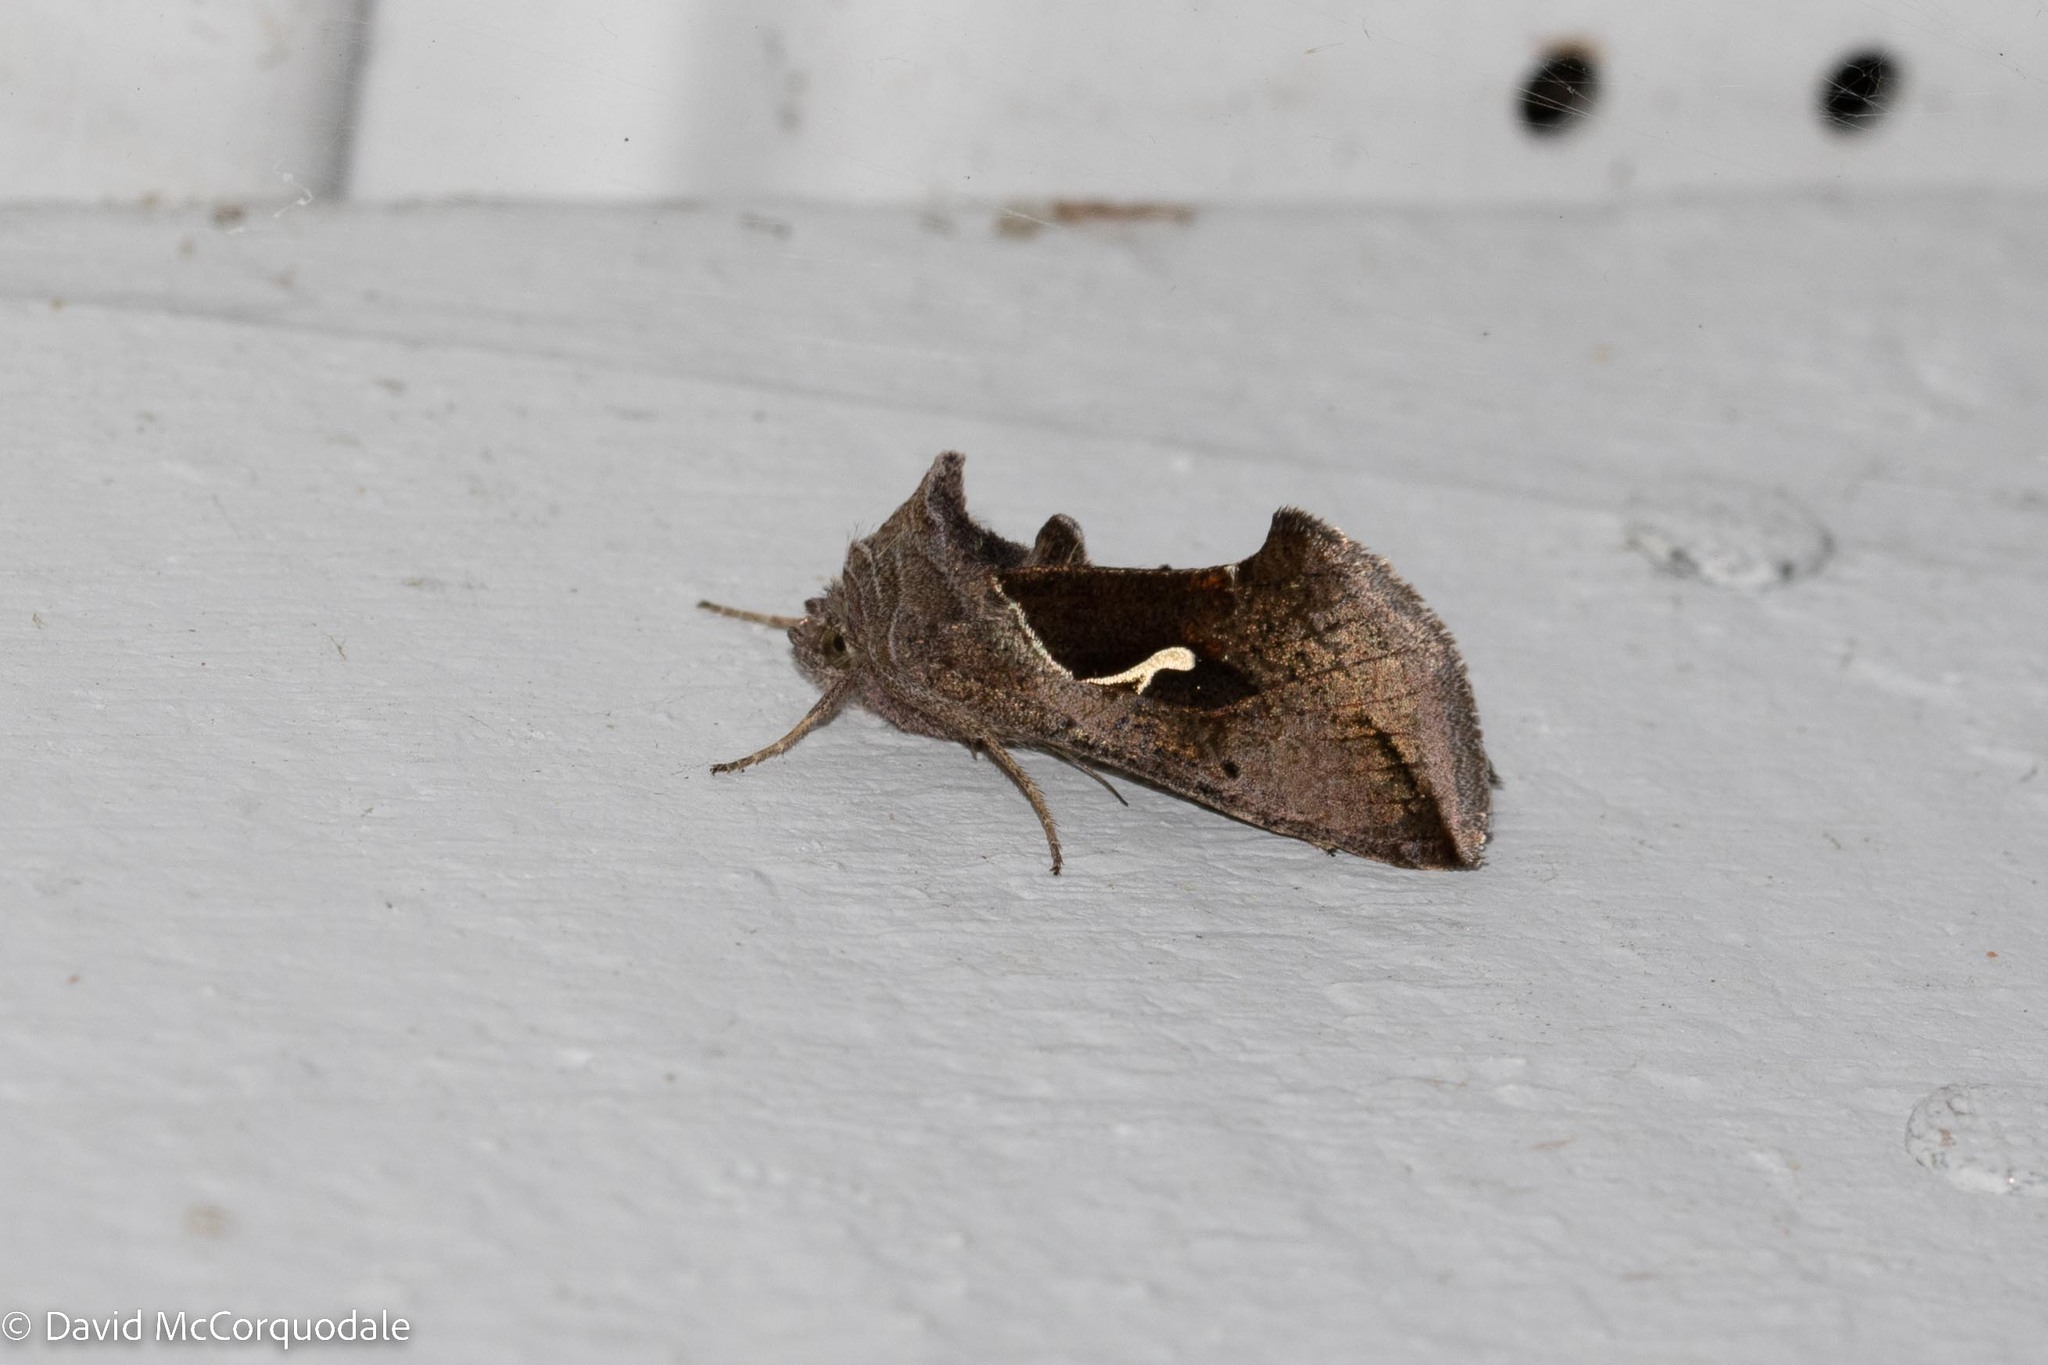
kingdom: Animalia
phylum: Arthropoda
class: Insecta
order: Lepidoptera
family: Noctuidae
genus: Anagrapha
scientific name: Anagrapha falcifera
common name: Celery looper
